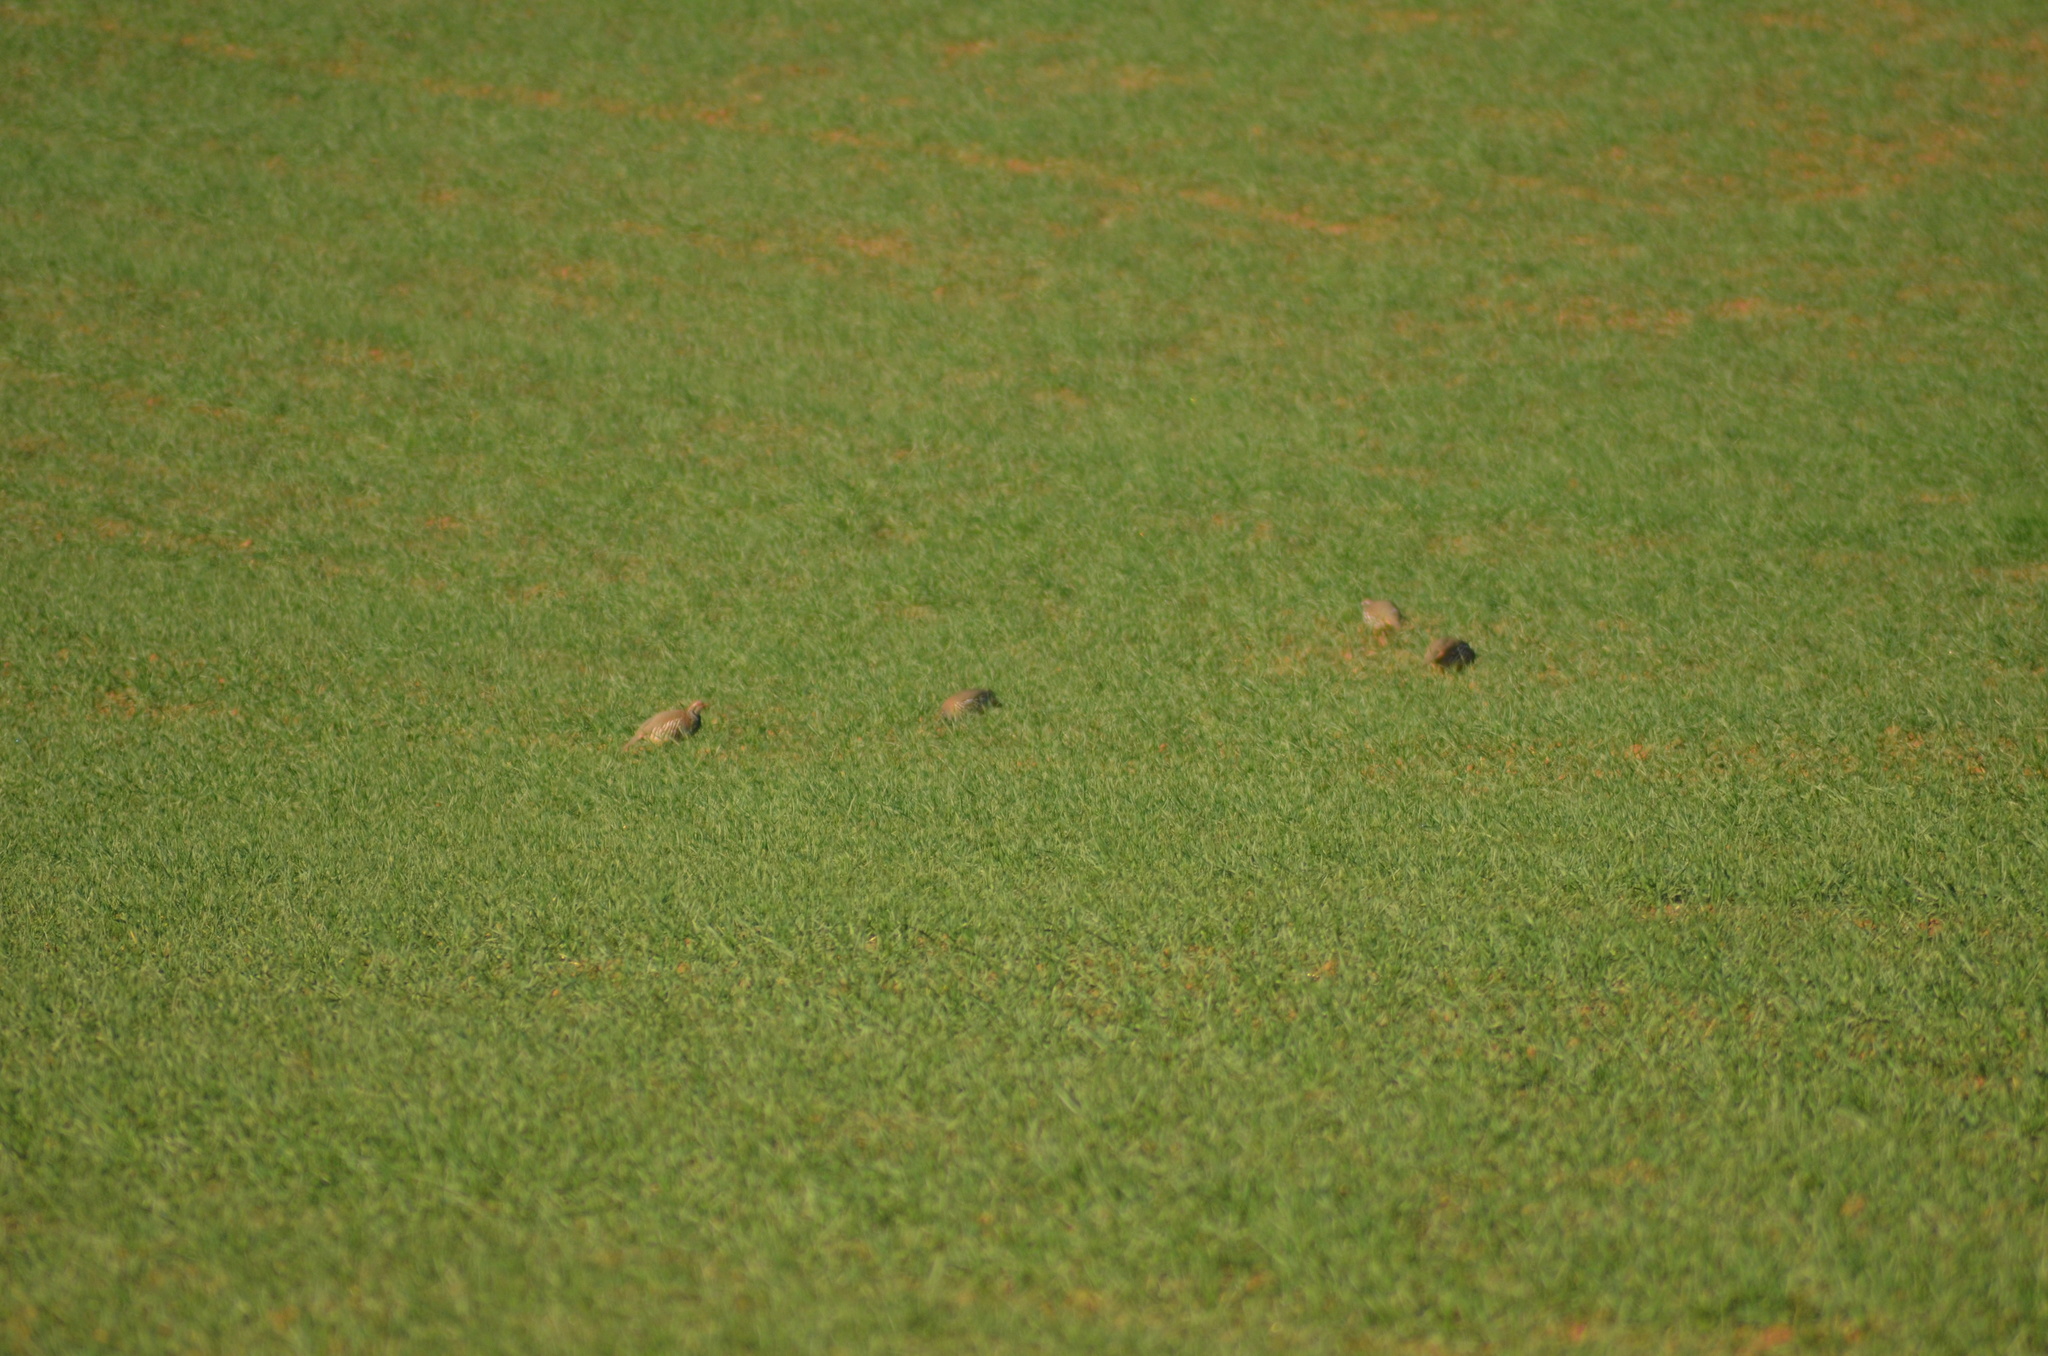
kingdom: Animalia
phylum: Chordata
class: Aves
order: Galliformes
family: Phasianidae
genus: Alectoris
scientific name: Alectoris rufa
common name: Red-legged partridge
